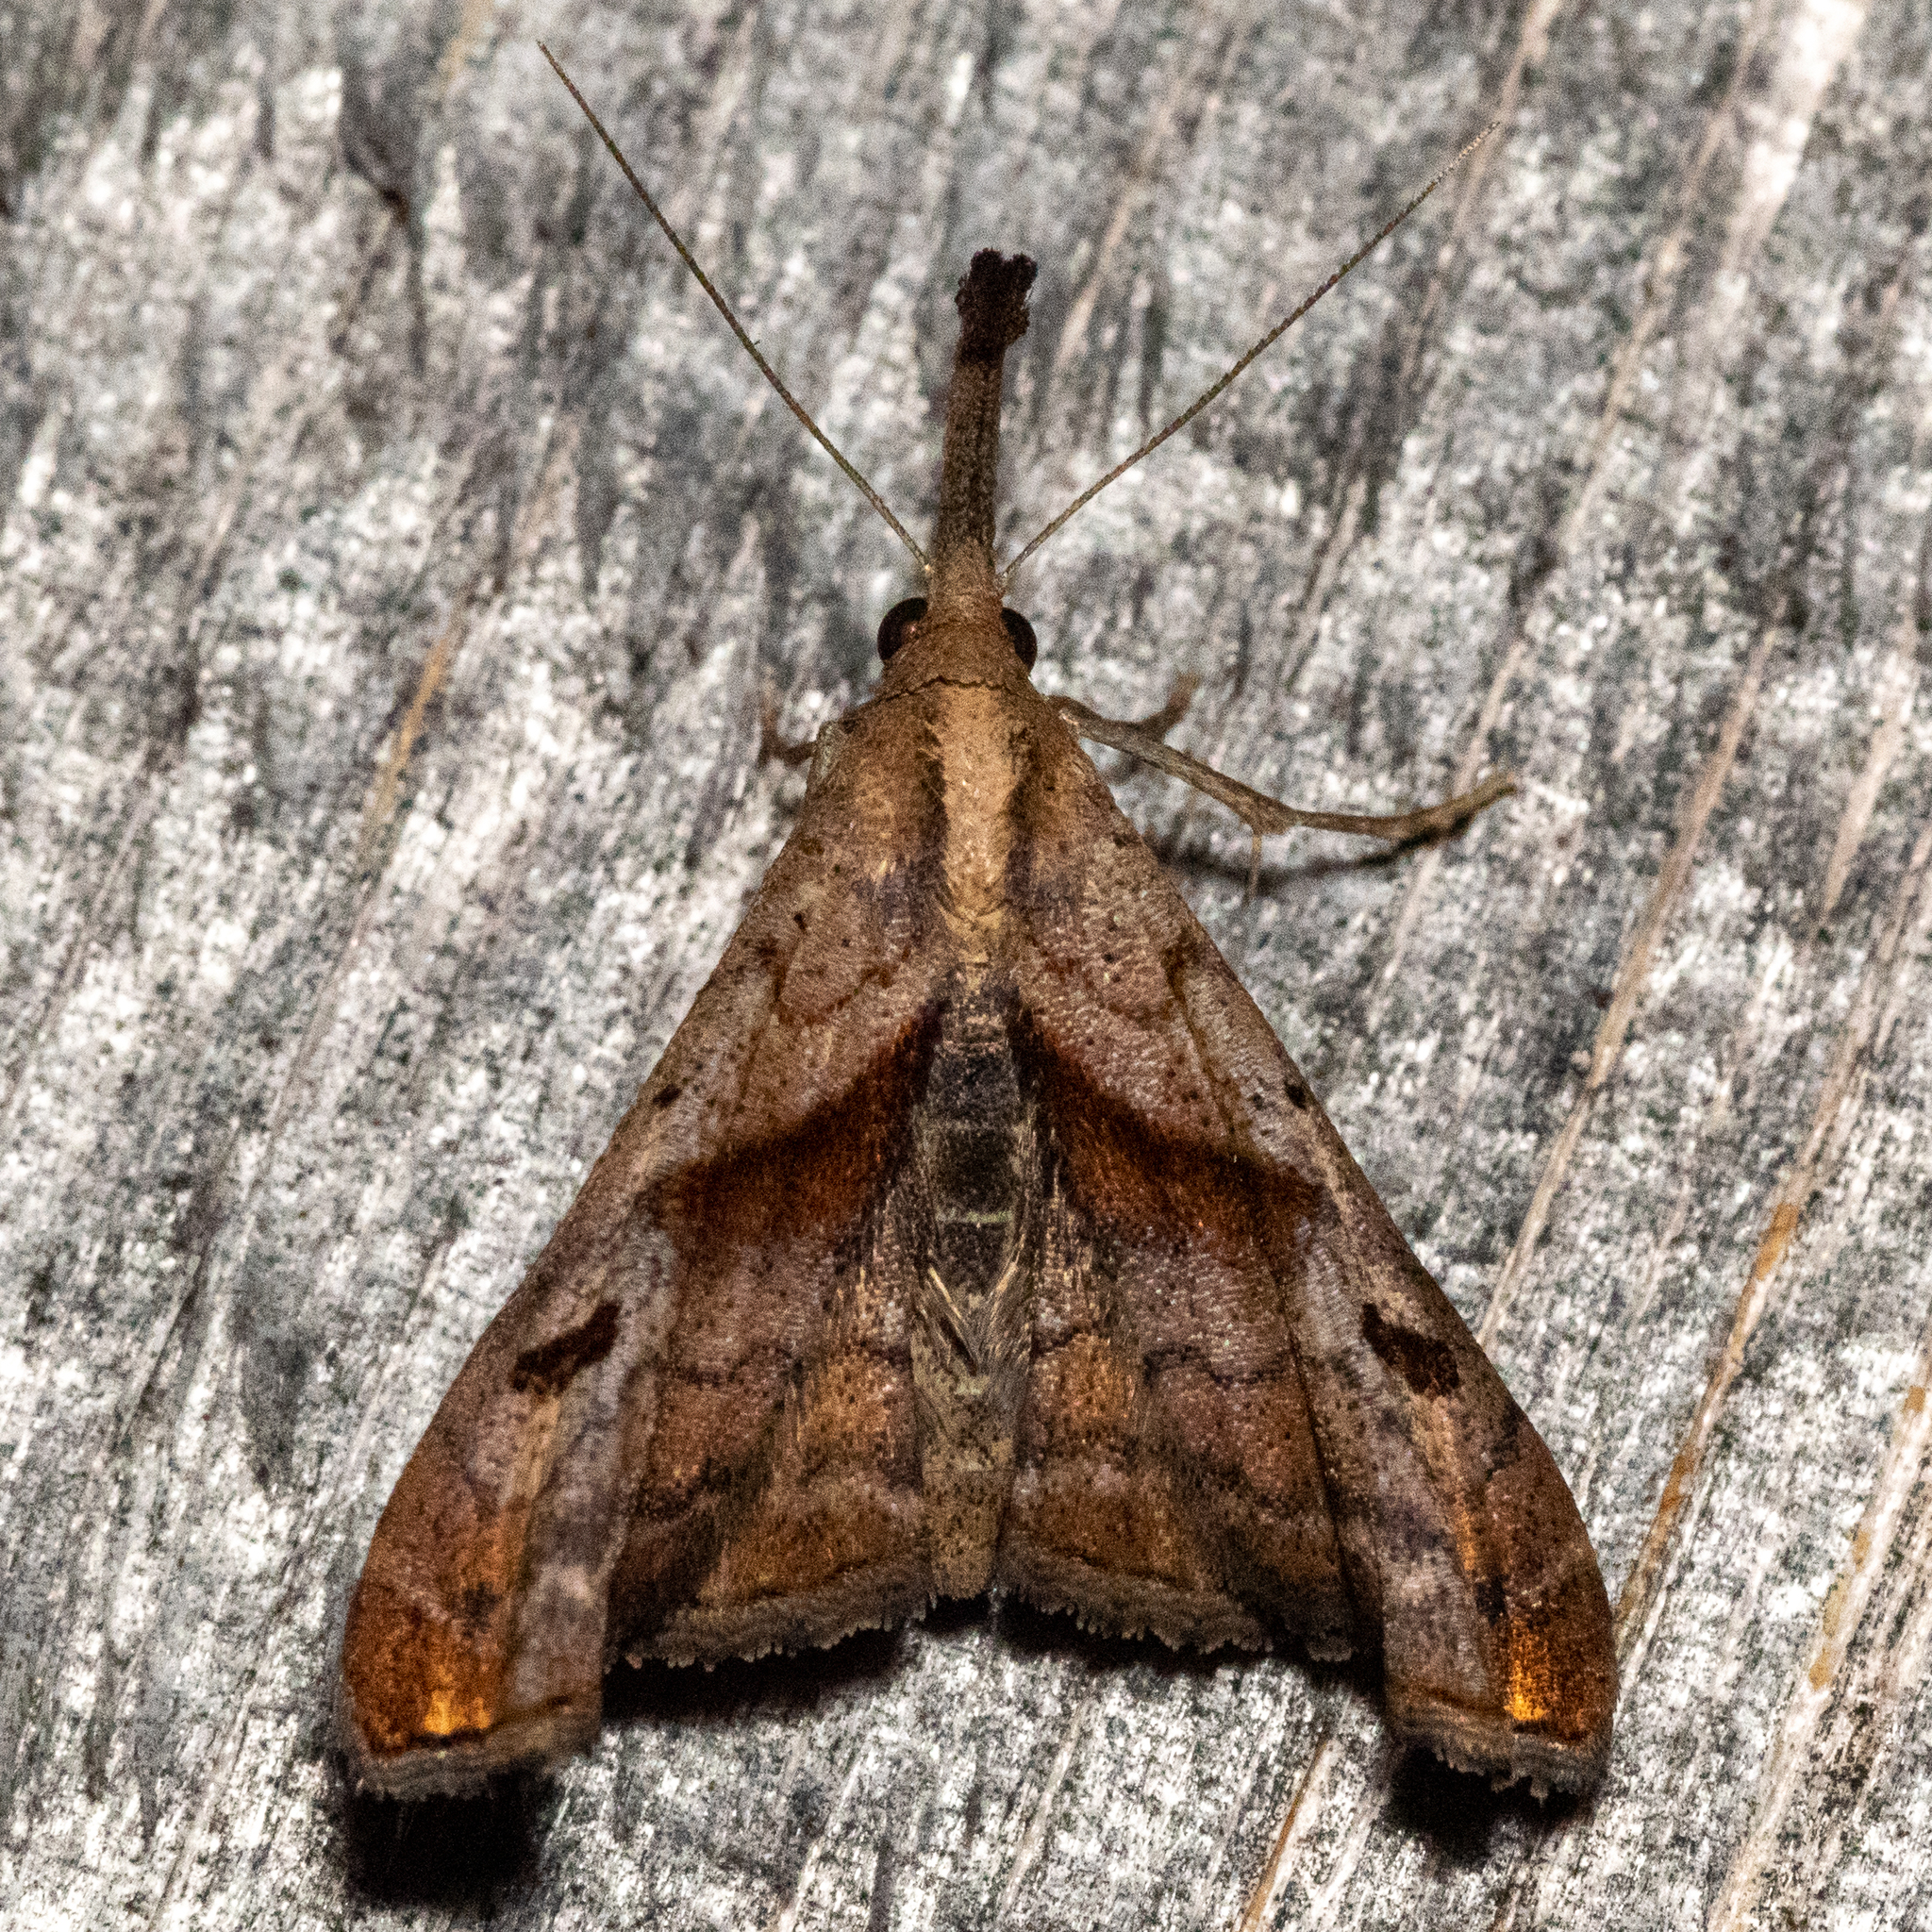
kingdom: Animalia
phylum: Arthropoda
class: Insecta
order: Lepidoptera
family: Erebidae
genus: Palthis
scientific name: Palthis angulalis
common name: Dark-spotted palthis moth
